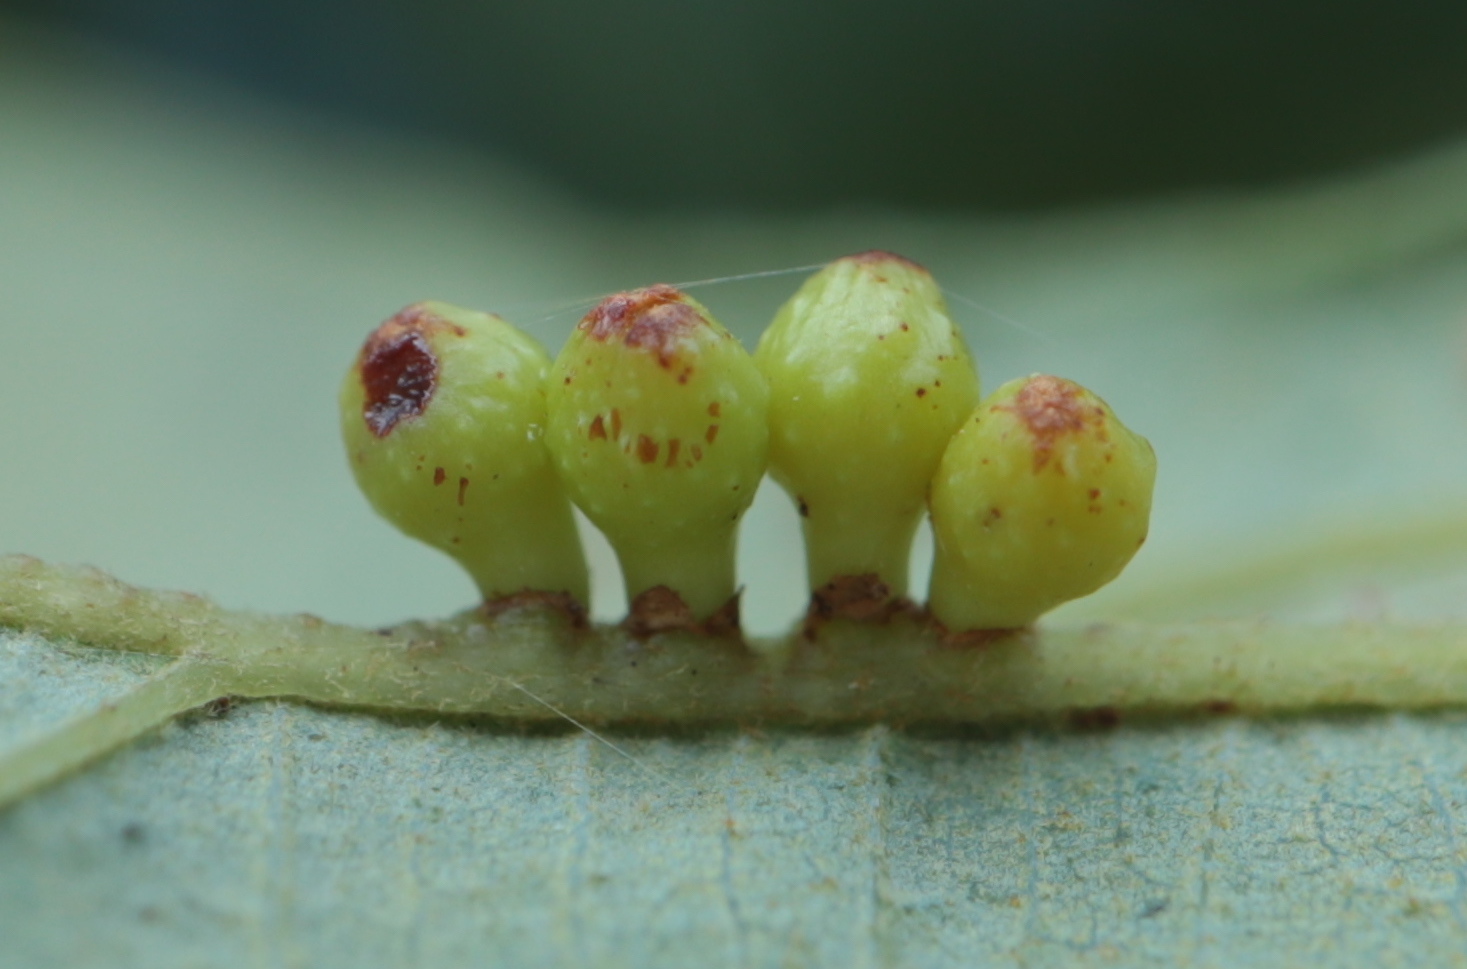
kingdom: Animalia
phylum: Arthropoda
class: Insecta
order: Hymenoptera
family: Cynipidae
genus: Andricus
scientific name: Andricus
